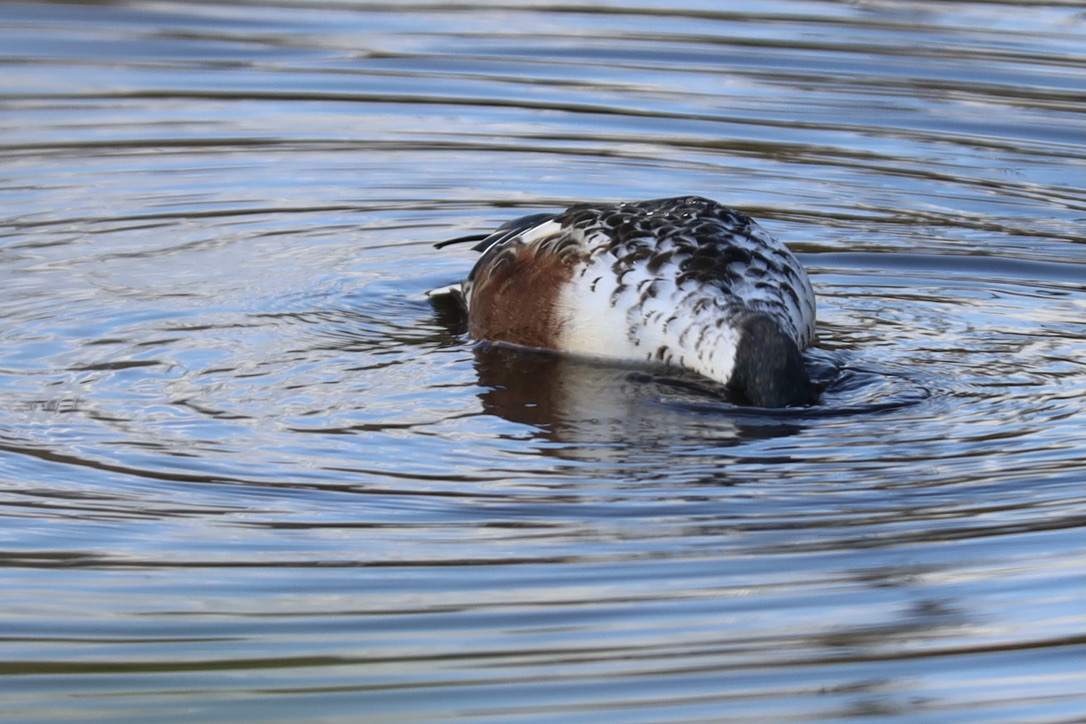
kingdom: Animalia
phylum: Chordata
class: Aves
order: Anseriformes
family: Anatidae
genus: Spatula
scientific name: Spatula clypeata
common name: Northern shoveler
